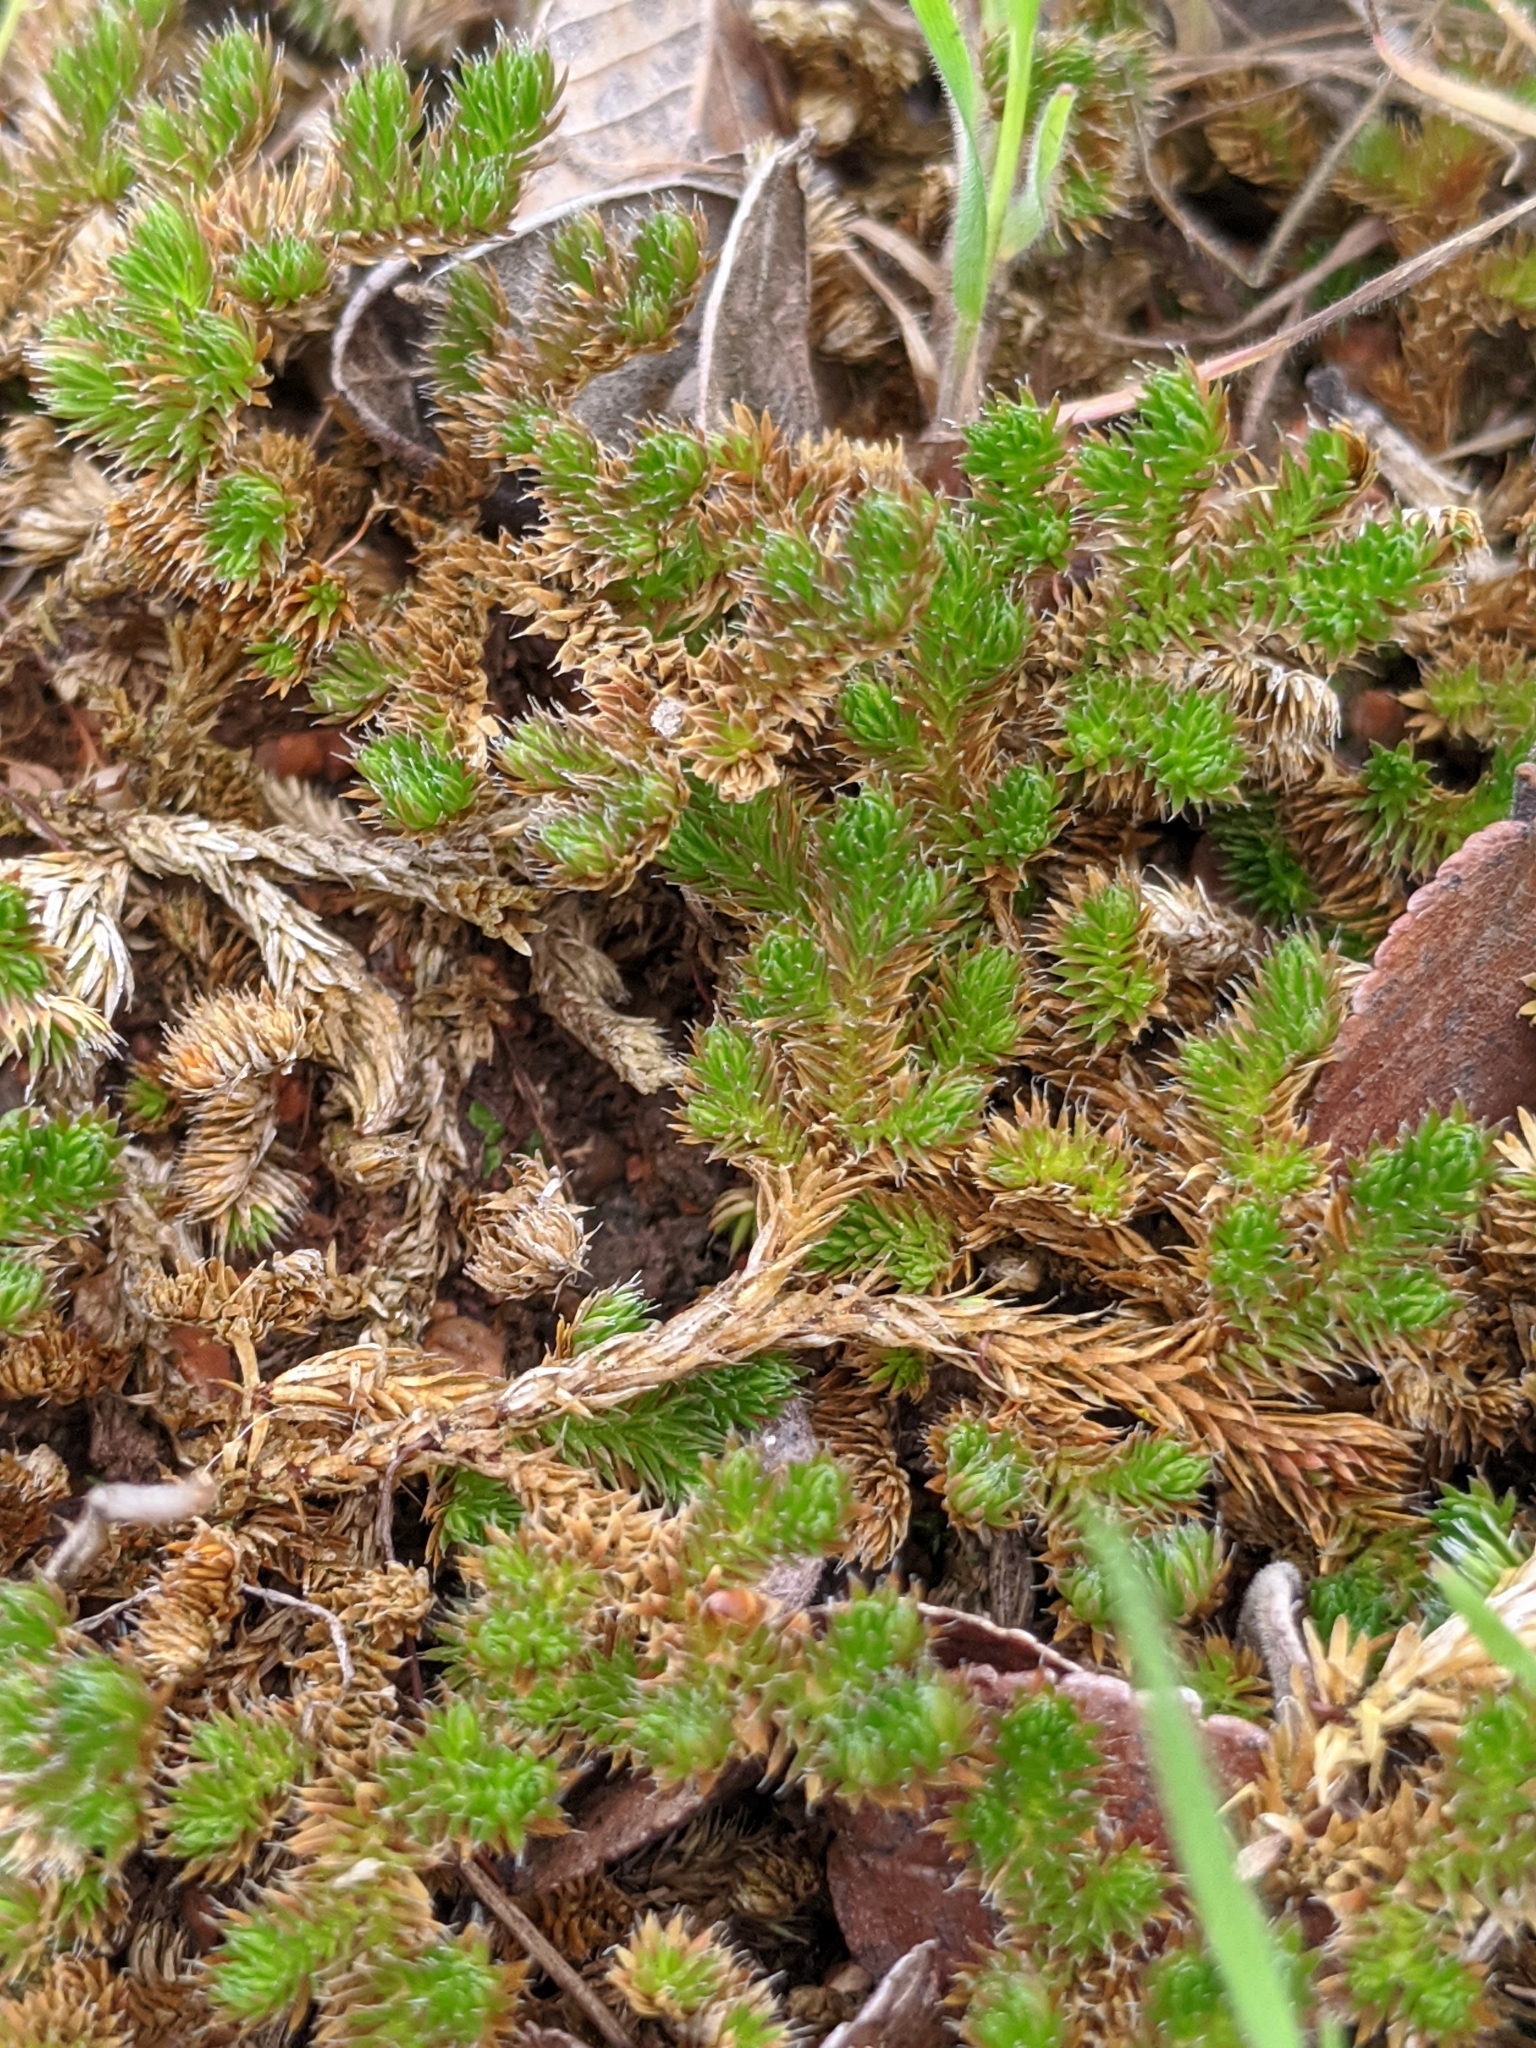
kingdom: Plantae
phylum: Tracheophyta
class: Lycopodiopsida
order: Selaginellales
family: Selaginellaceae
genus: Selaginella
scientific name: Selaginella peruviana
